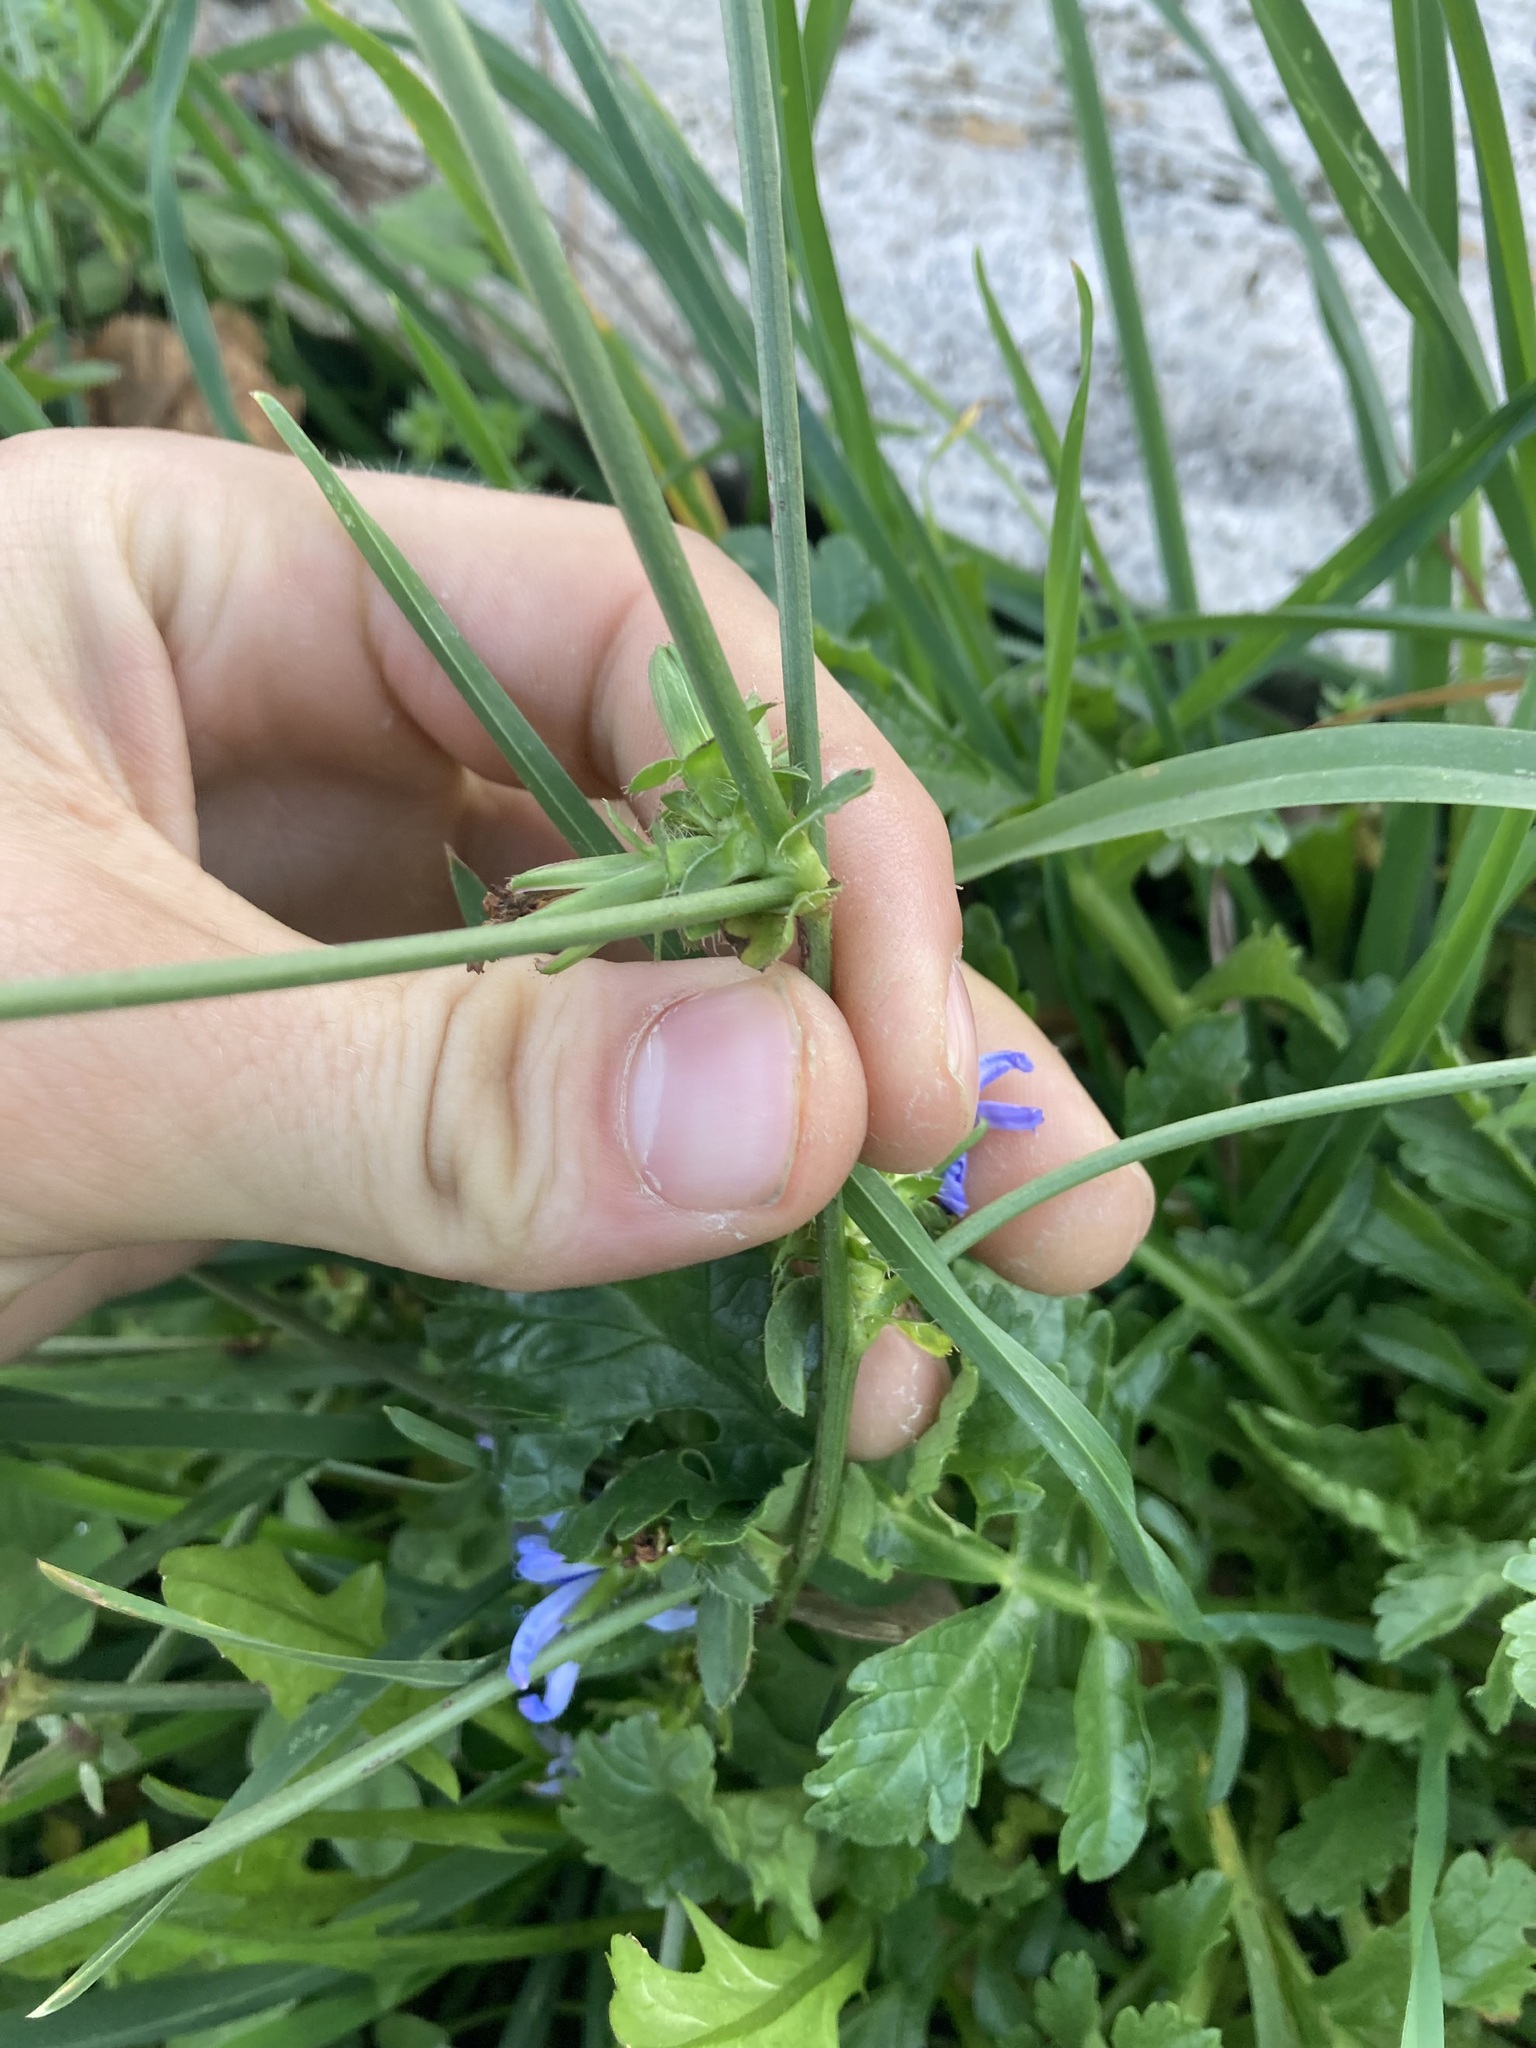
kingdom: Plantae
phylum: Tracheophyta
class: Magnoliopsida
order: Asterales
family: Asteraceae
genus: Cichorium
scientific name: Cichorium intybus
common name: Chicory
